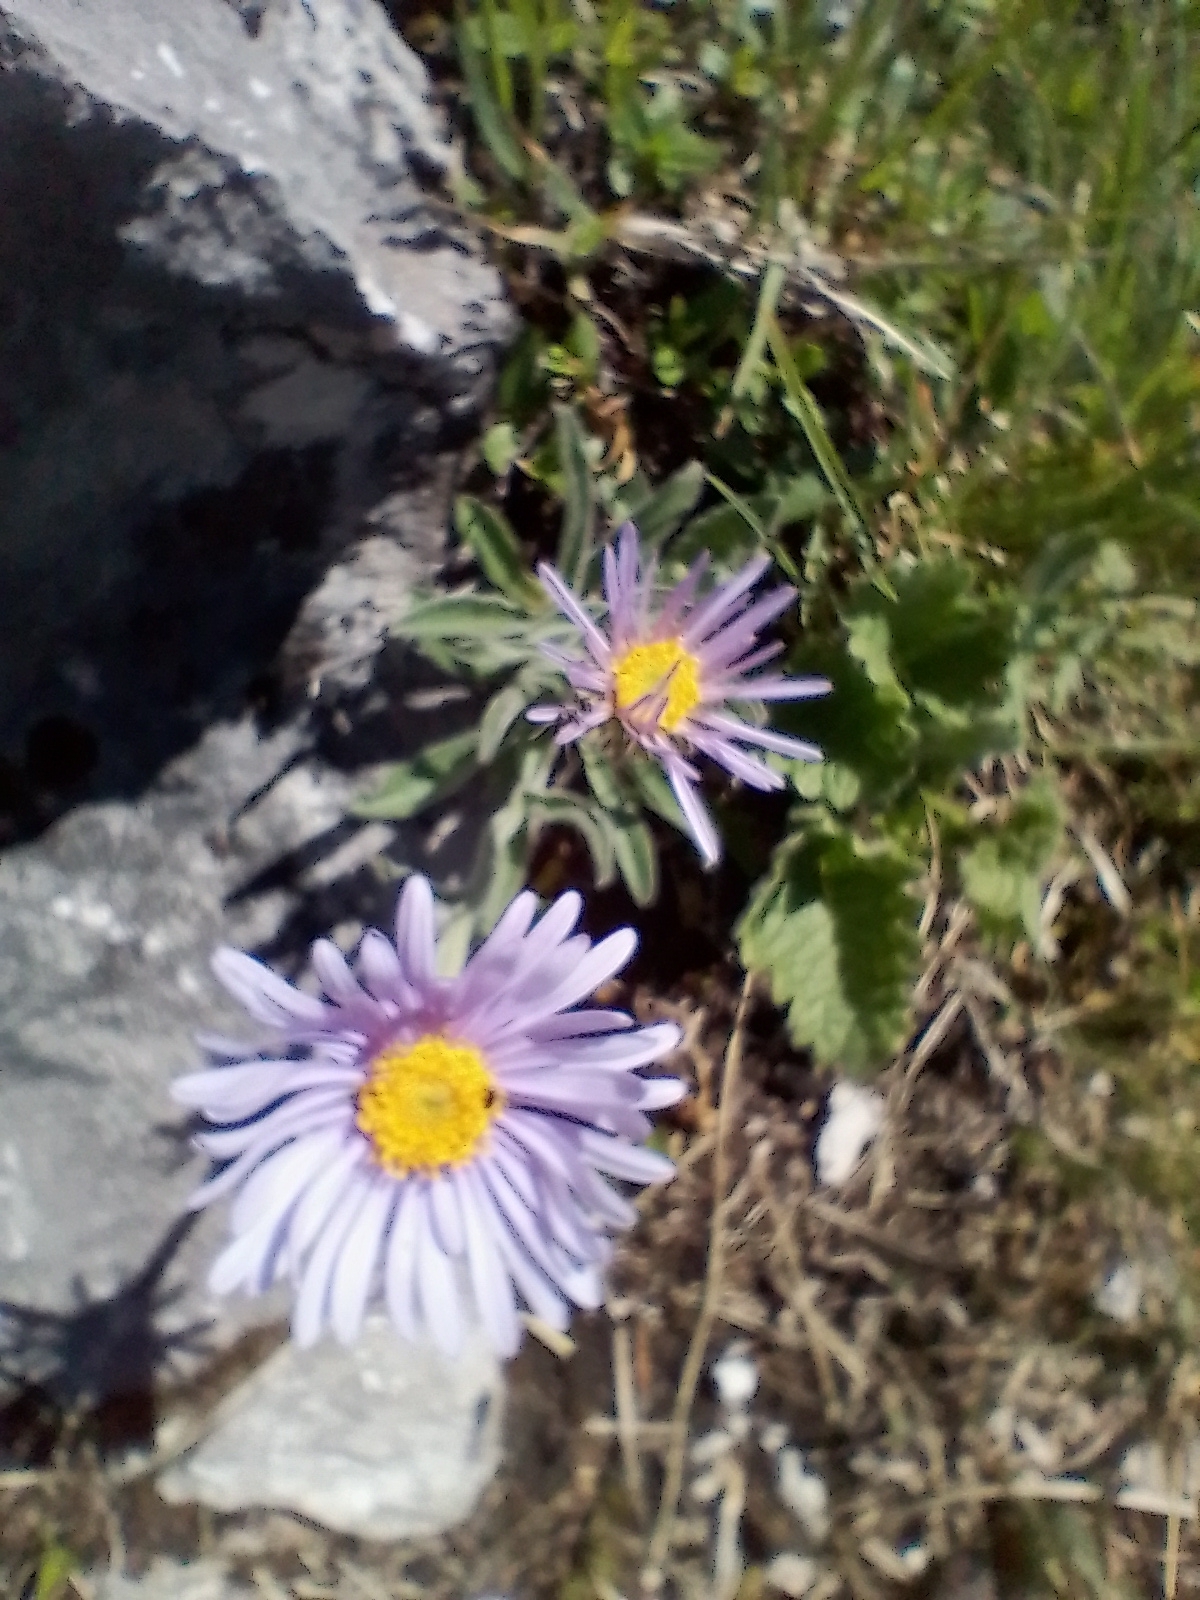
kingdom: Plantae
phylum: Tracheophyta
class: Magnoliopsida
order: Asterales
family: Asteraceae
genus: Aster
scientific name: Aster alpinus
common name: Alpine aster
